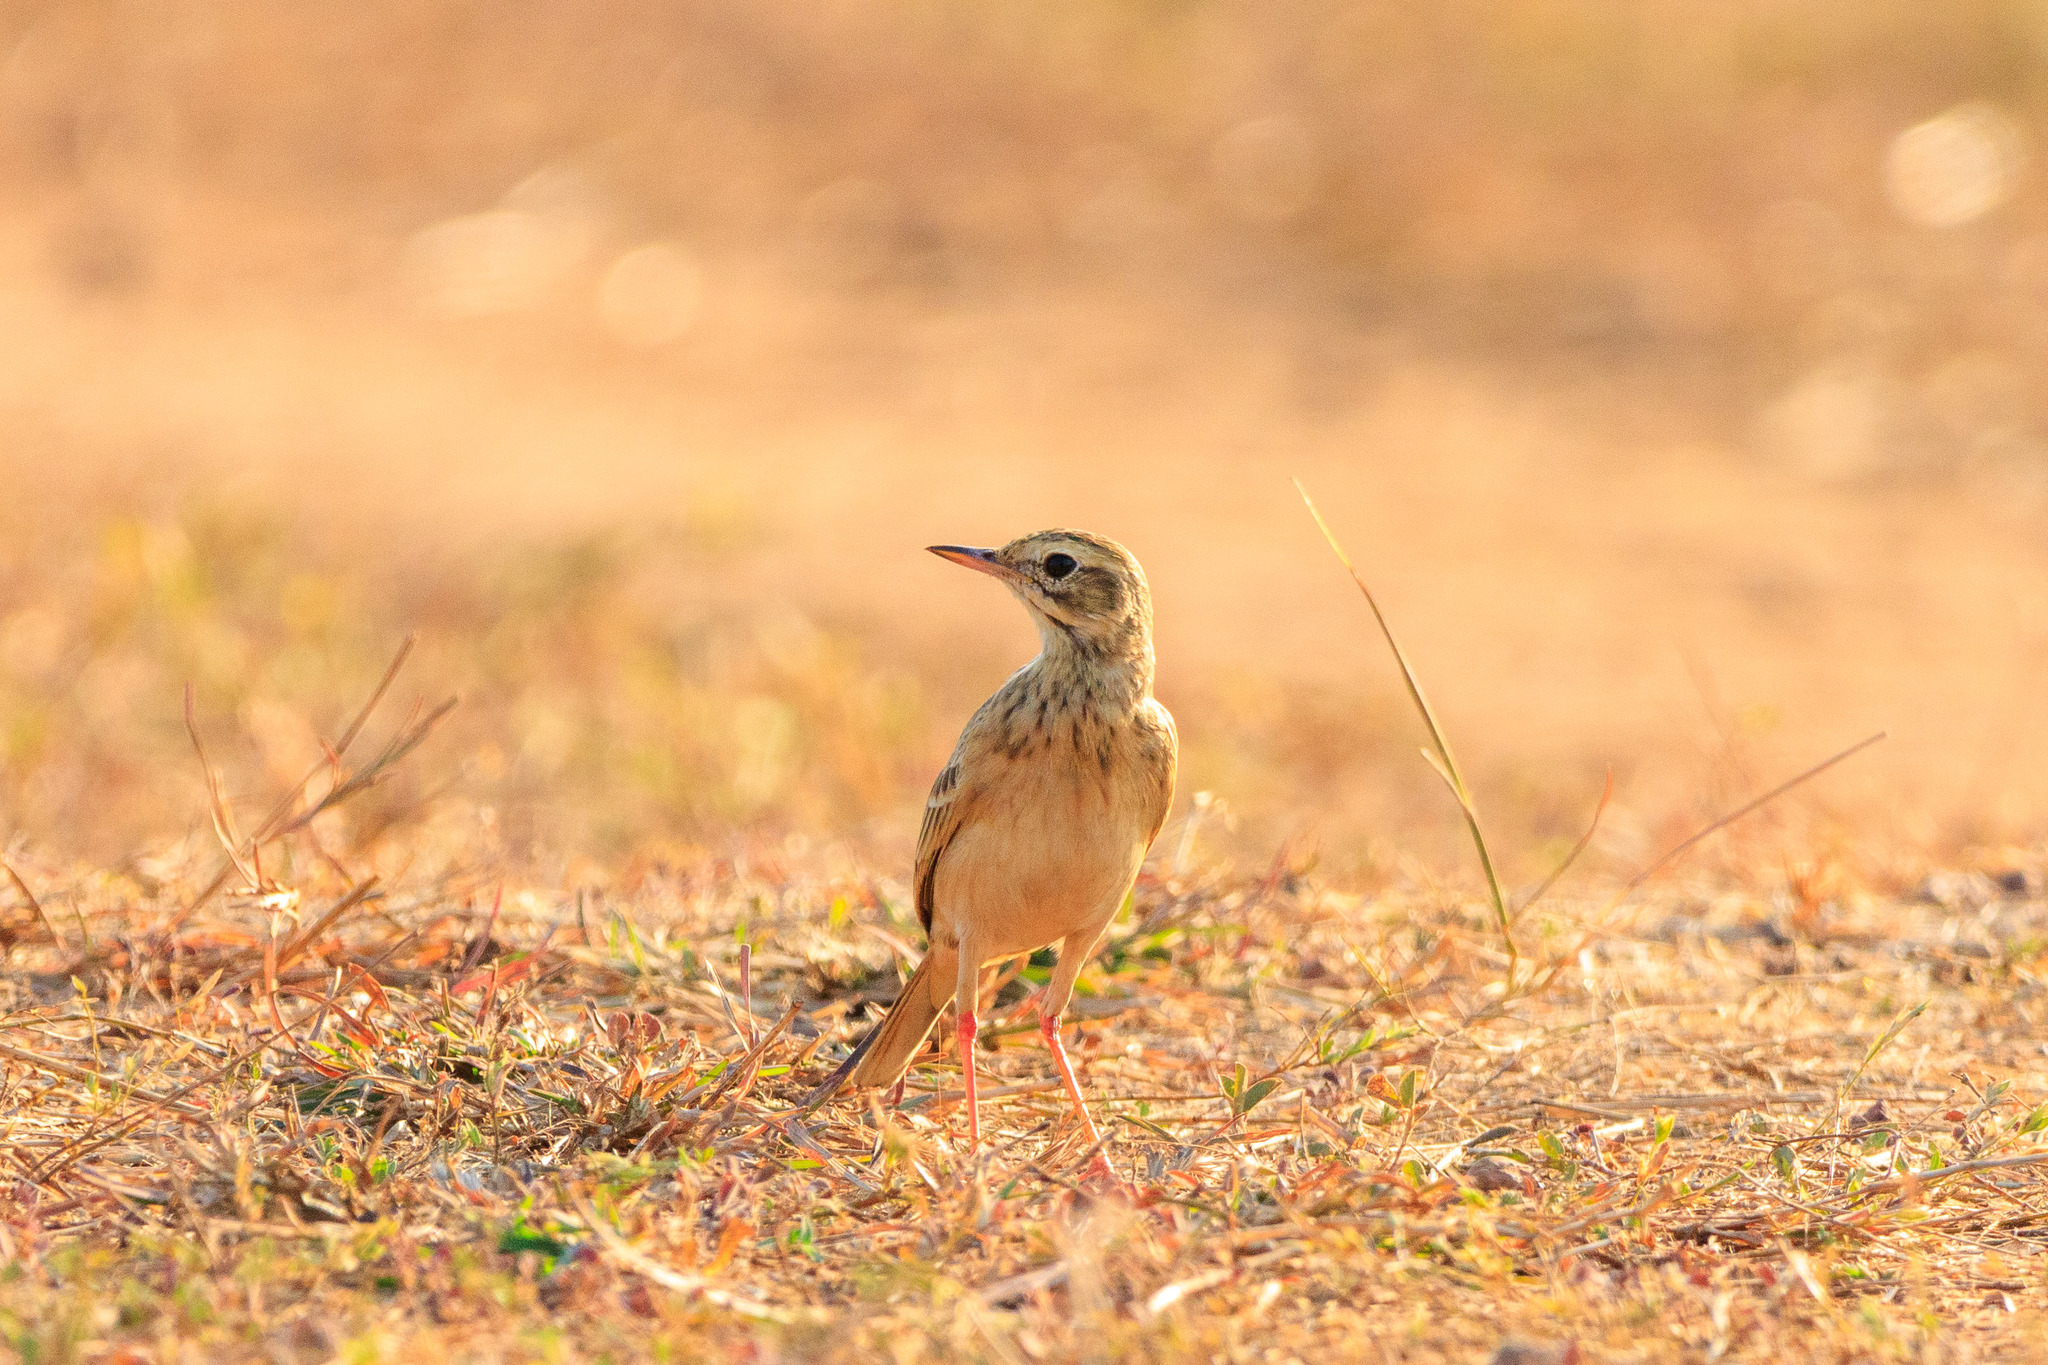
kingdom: Animalia
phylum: Chordata
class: Aves
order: Passeriformes
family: Motacillidae
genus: Anthus
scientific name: Anthus rufulus
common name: Paddyfield pipit
